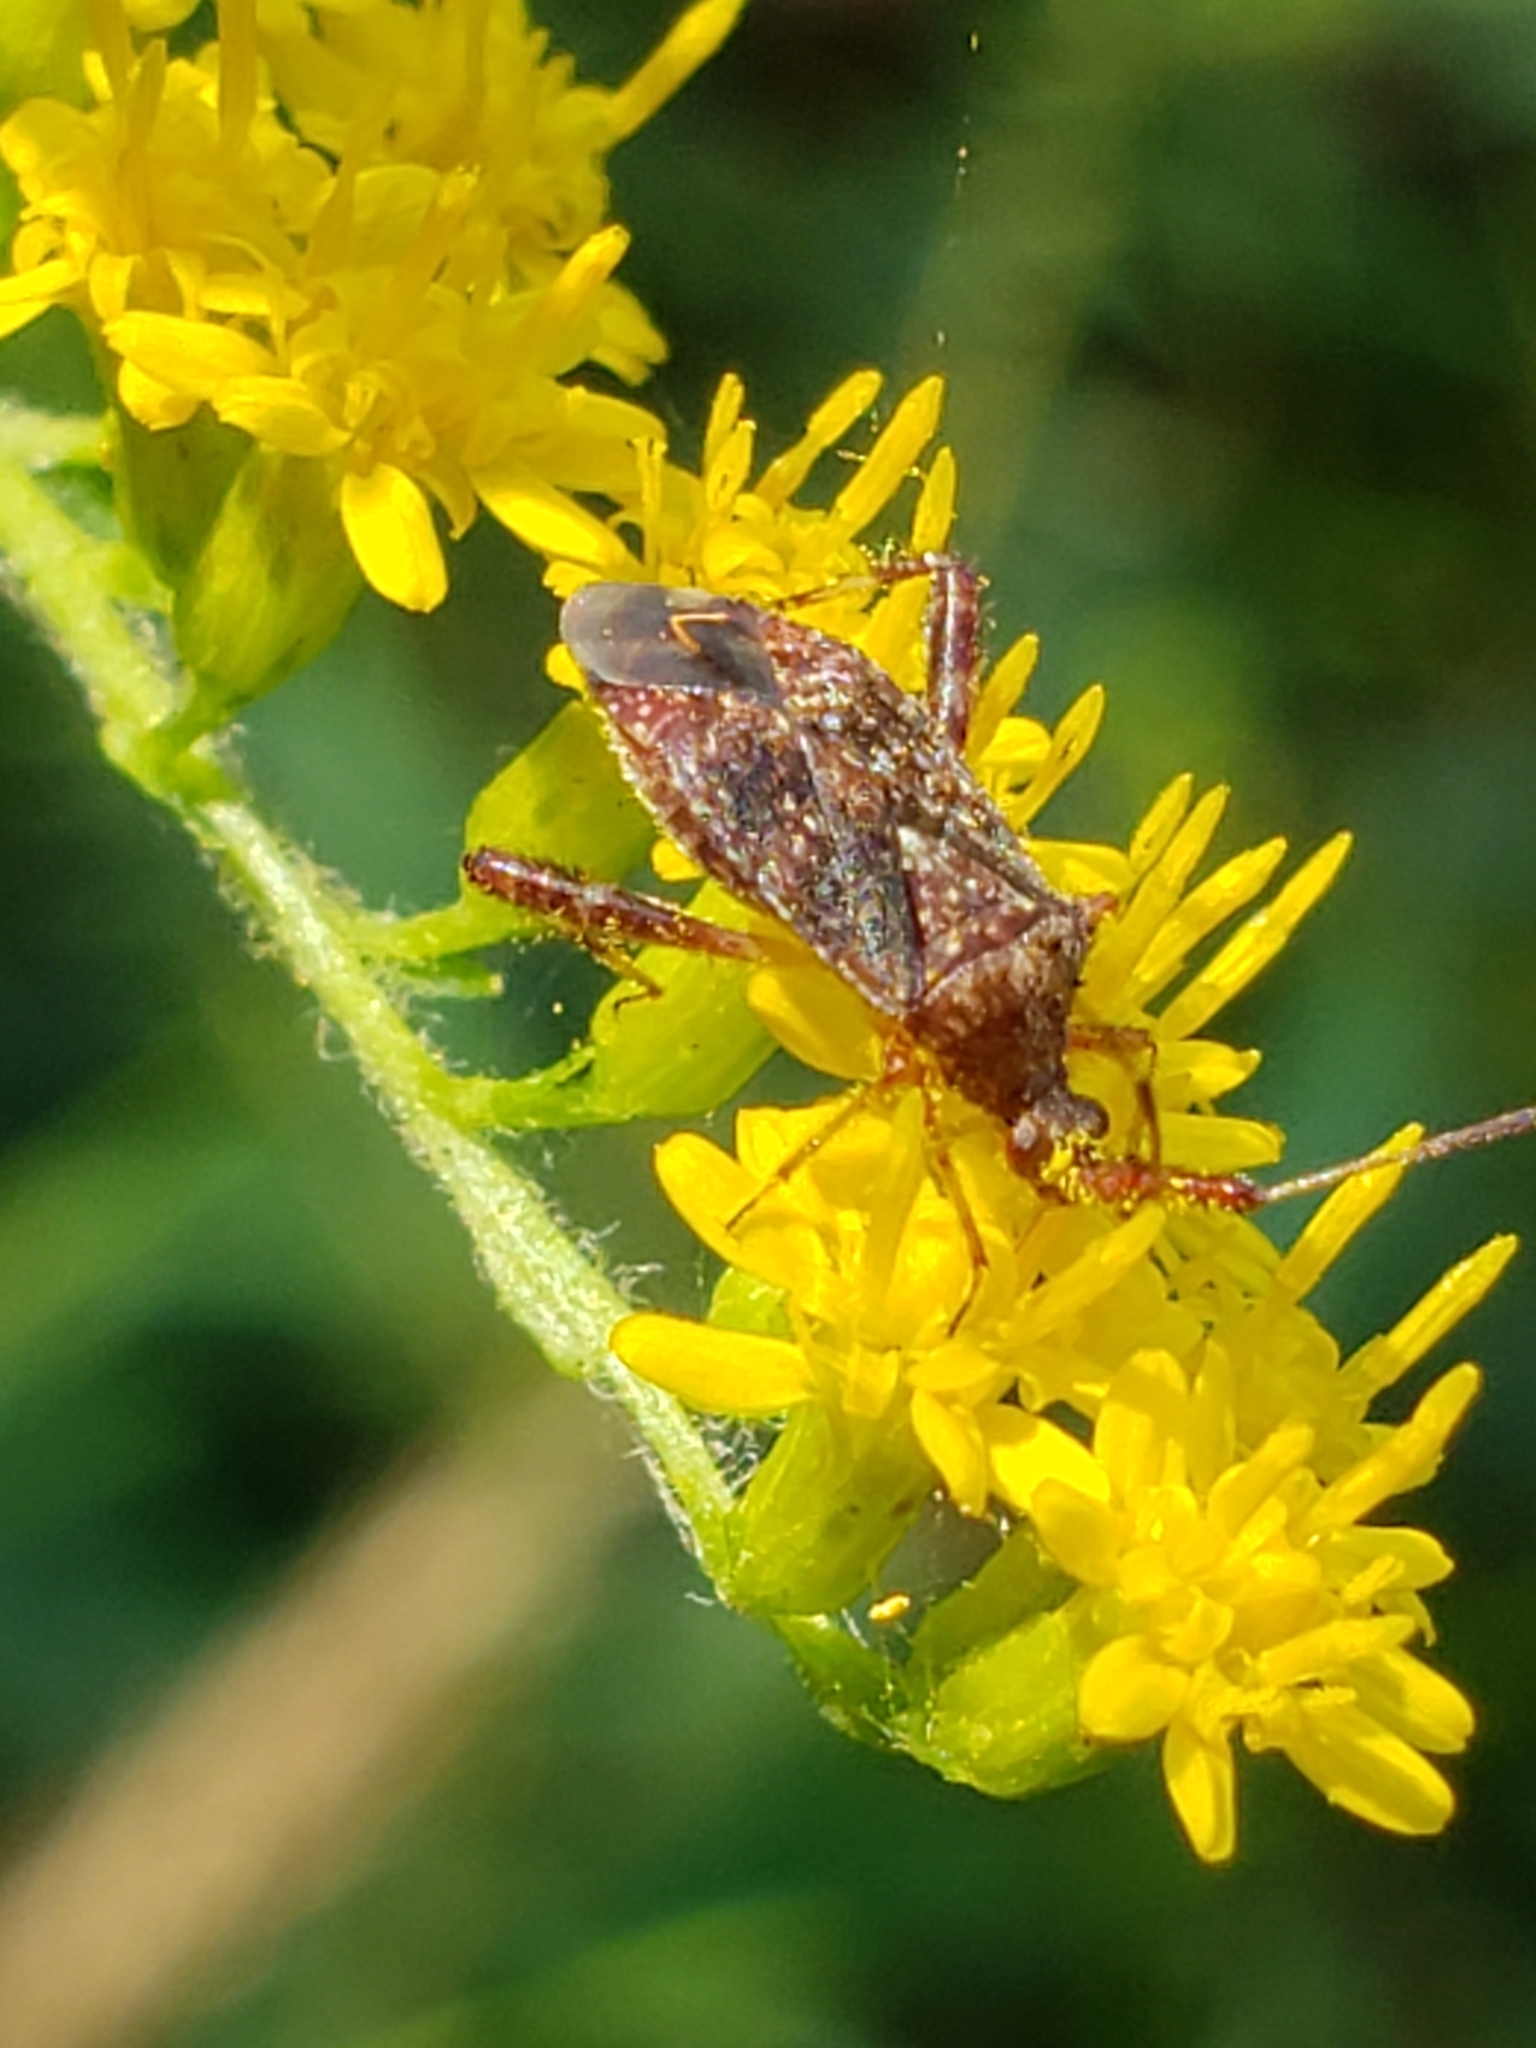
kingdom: Animalia
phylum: Arthropoda
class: Insecta
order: Hemiptera
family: Miridae
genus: Neurocolpus
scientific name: Neurocolpus nubilus
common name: Clouded plant bug
